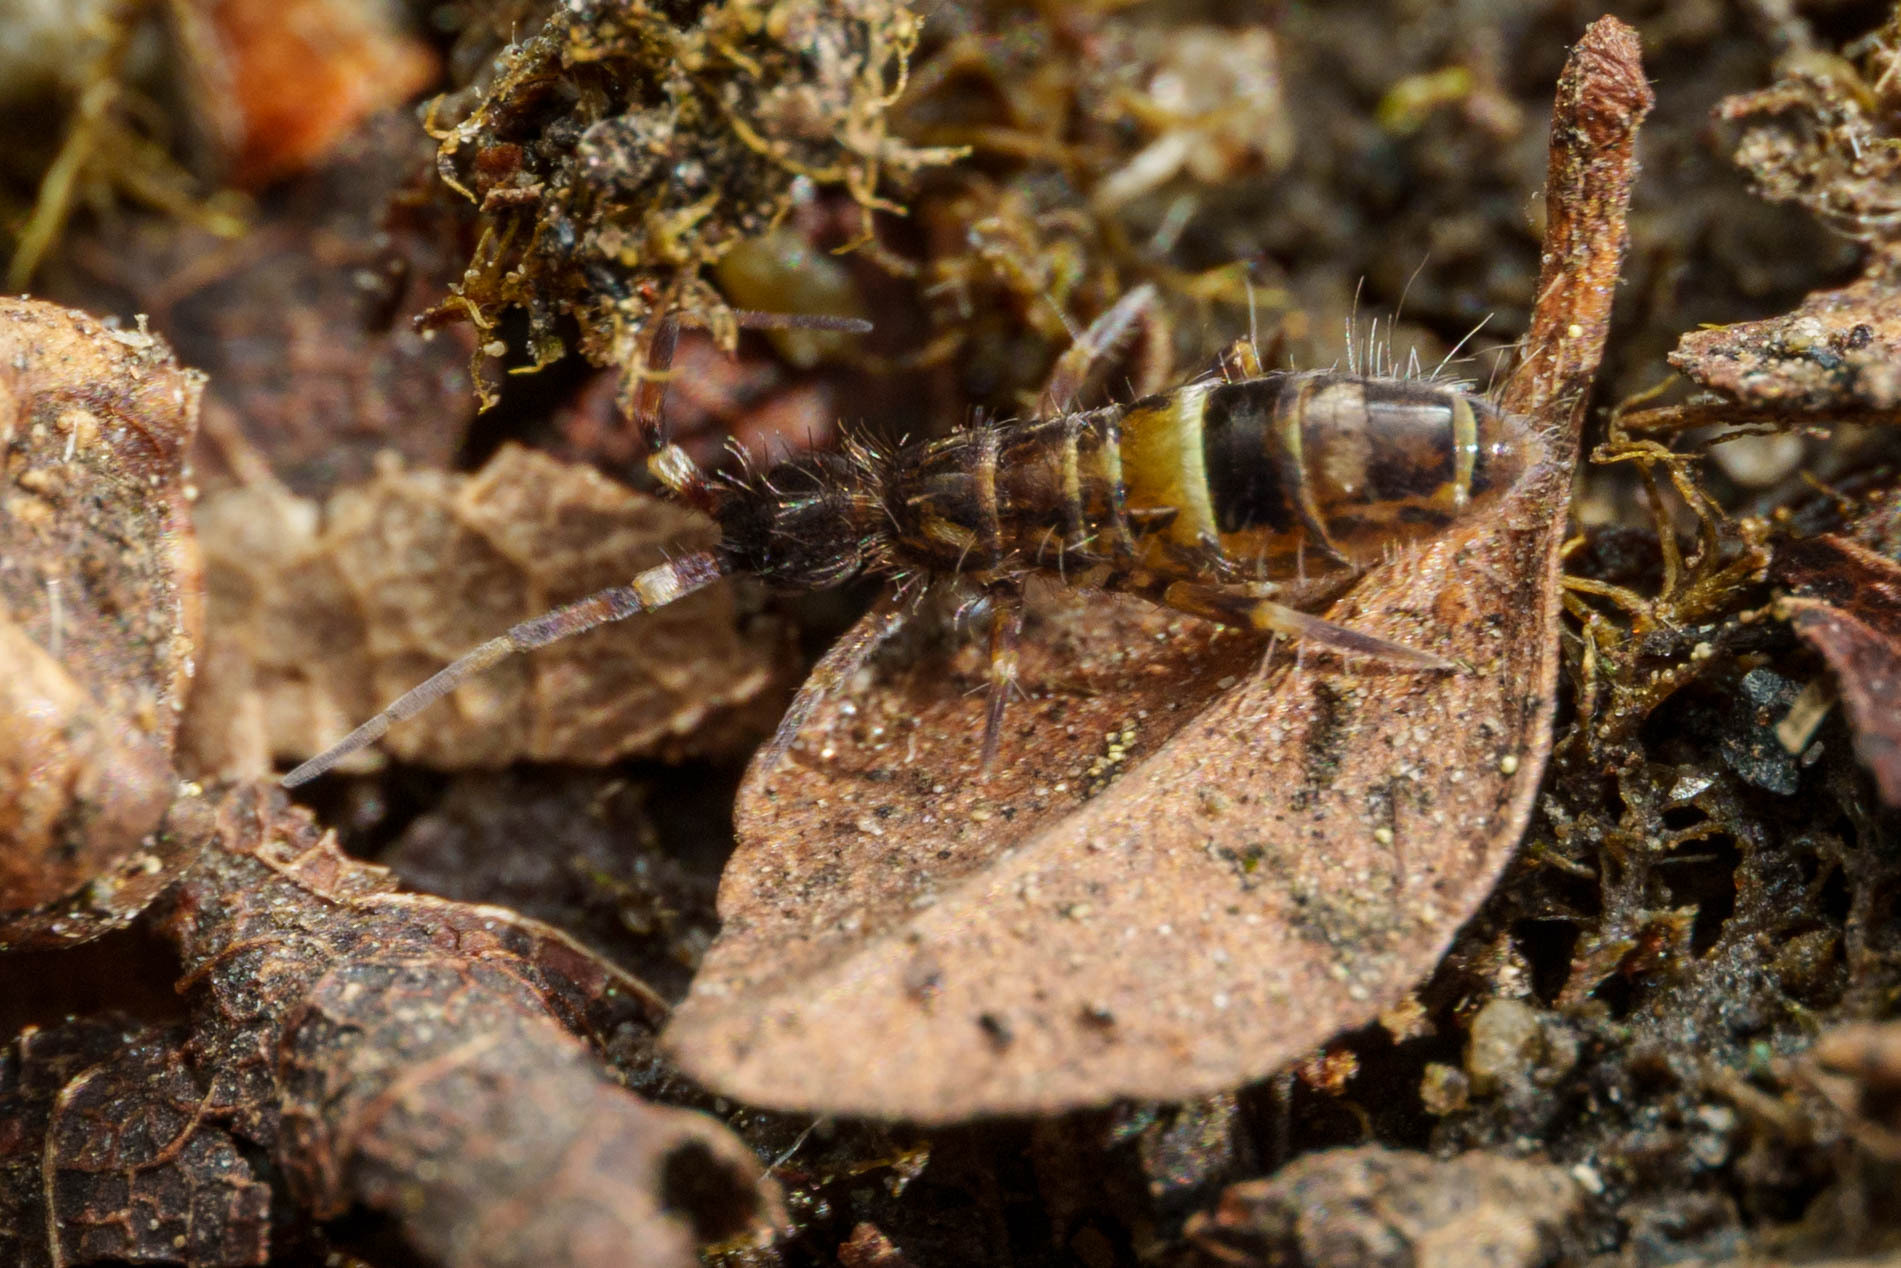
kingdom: Animalia
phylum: Arthropoda
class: Collembola
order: Entomobryomorpha
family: Orchesellidae
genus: Orchesella
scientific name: Orchesella cincta
